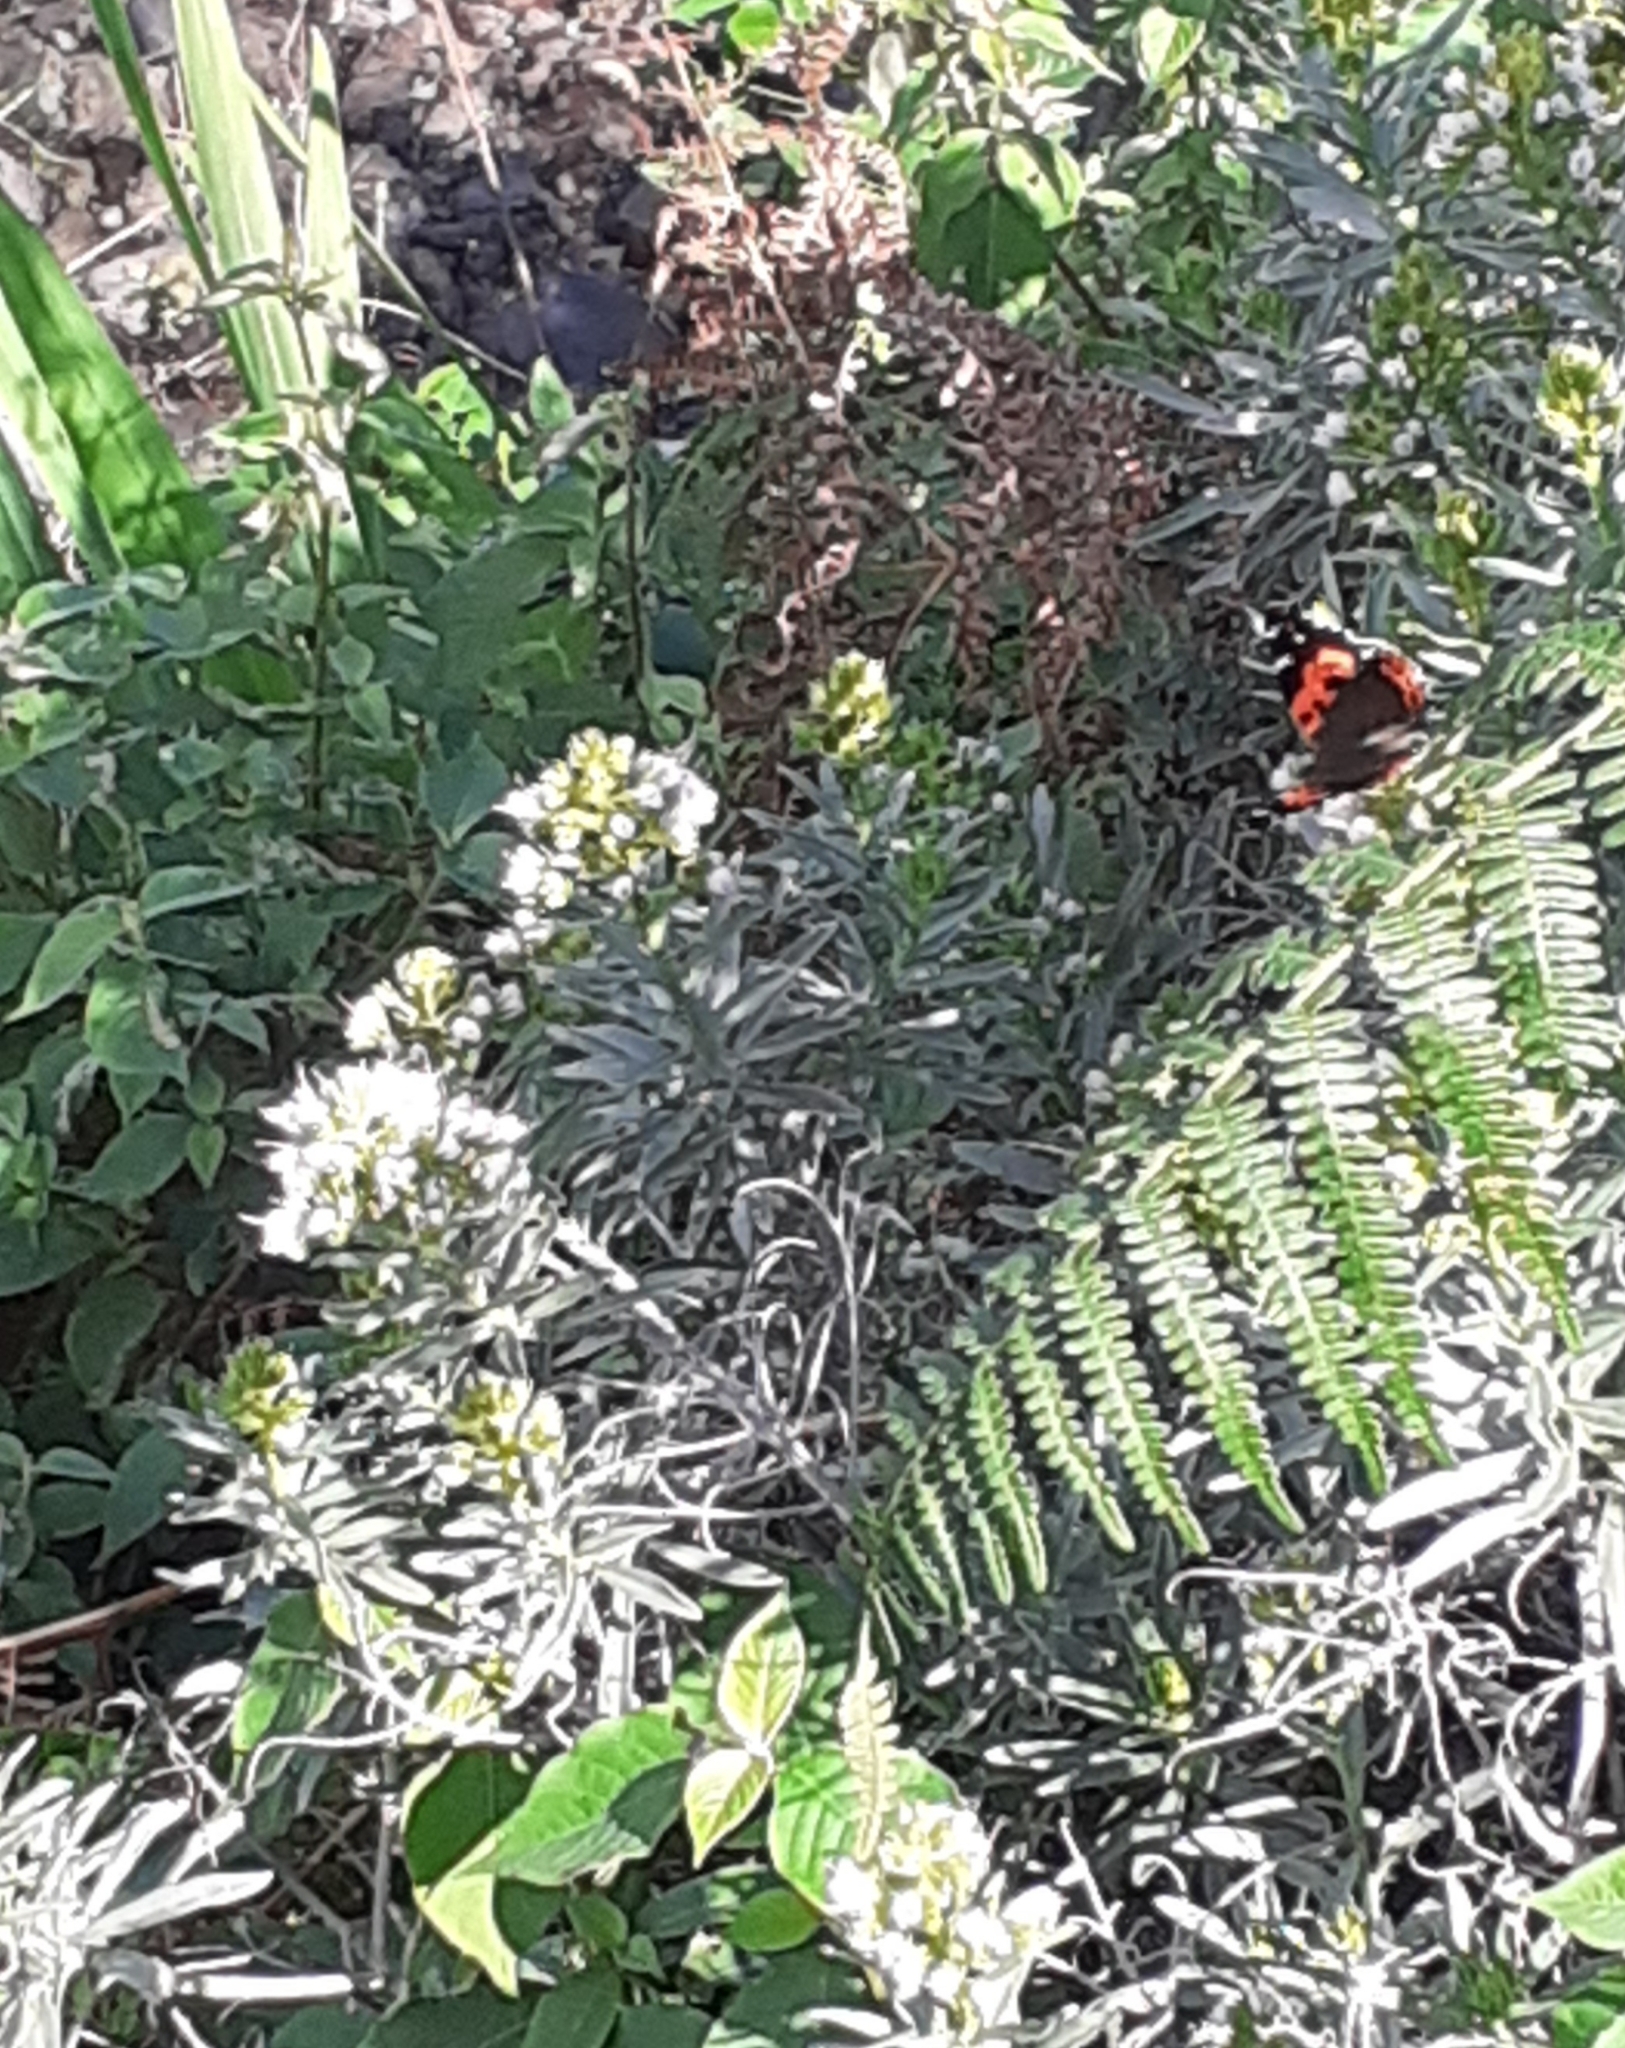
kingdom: Animalia
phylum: Arthropoda
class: Insecta
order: Lepidoptera
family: Nymphalidae
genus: Vanessa
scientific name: Vanessa vulcania
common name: Canary red admiral
